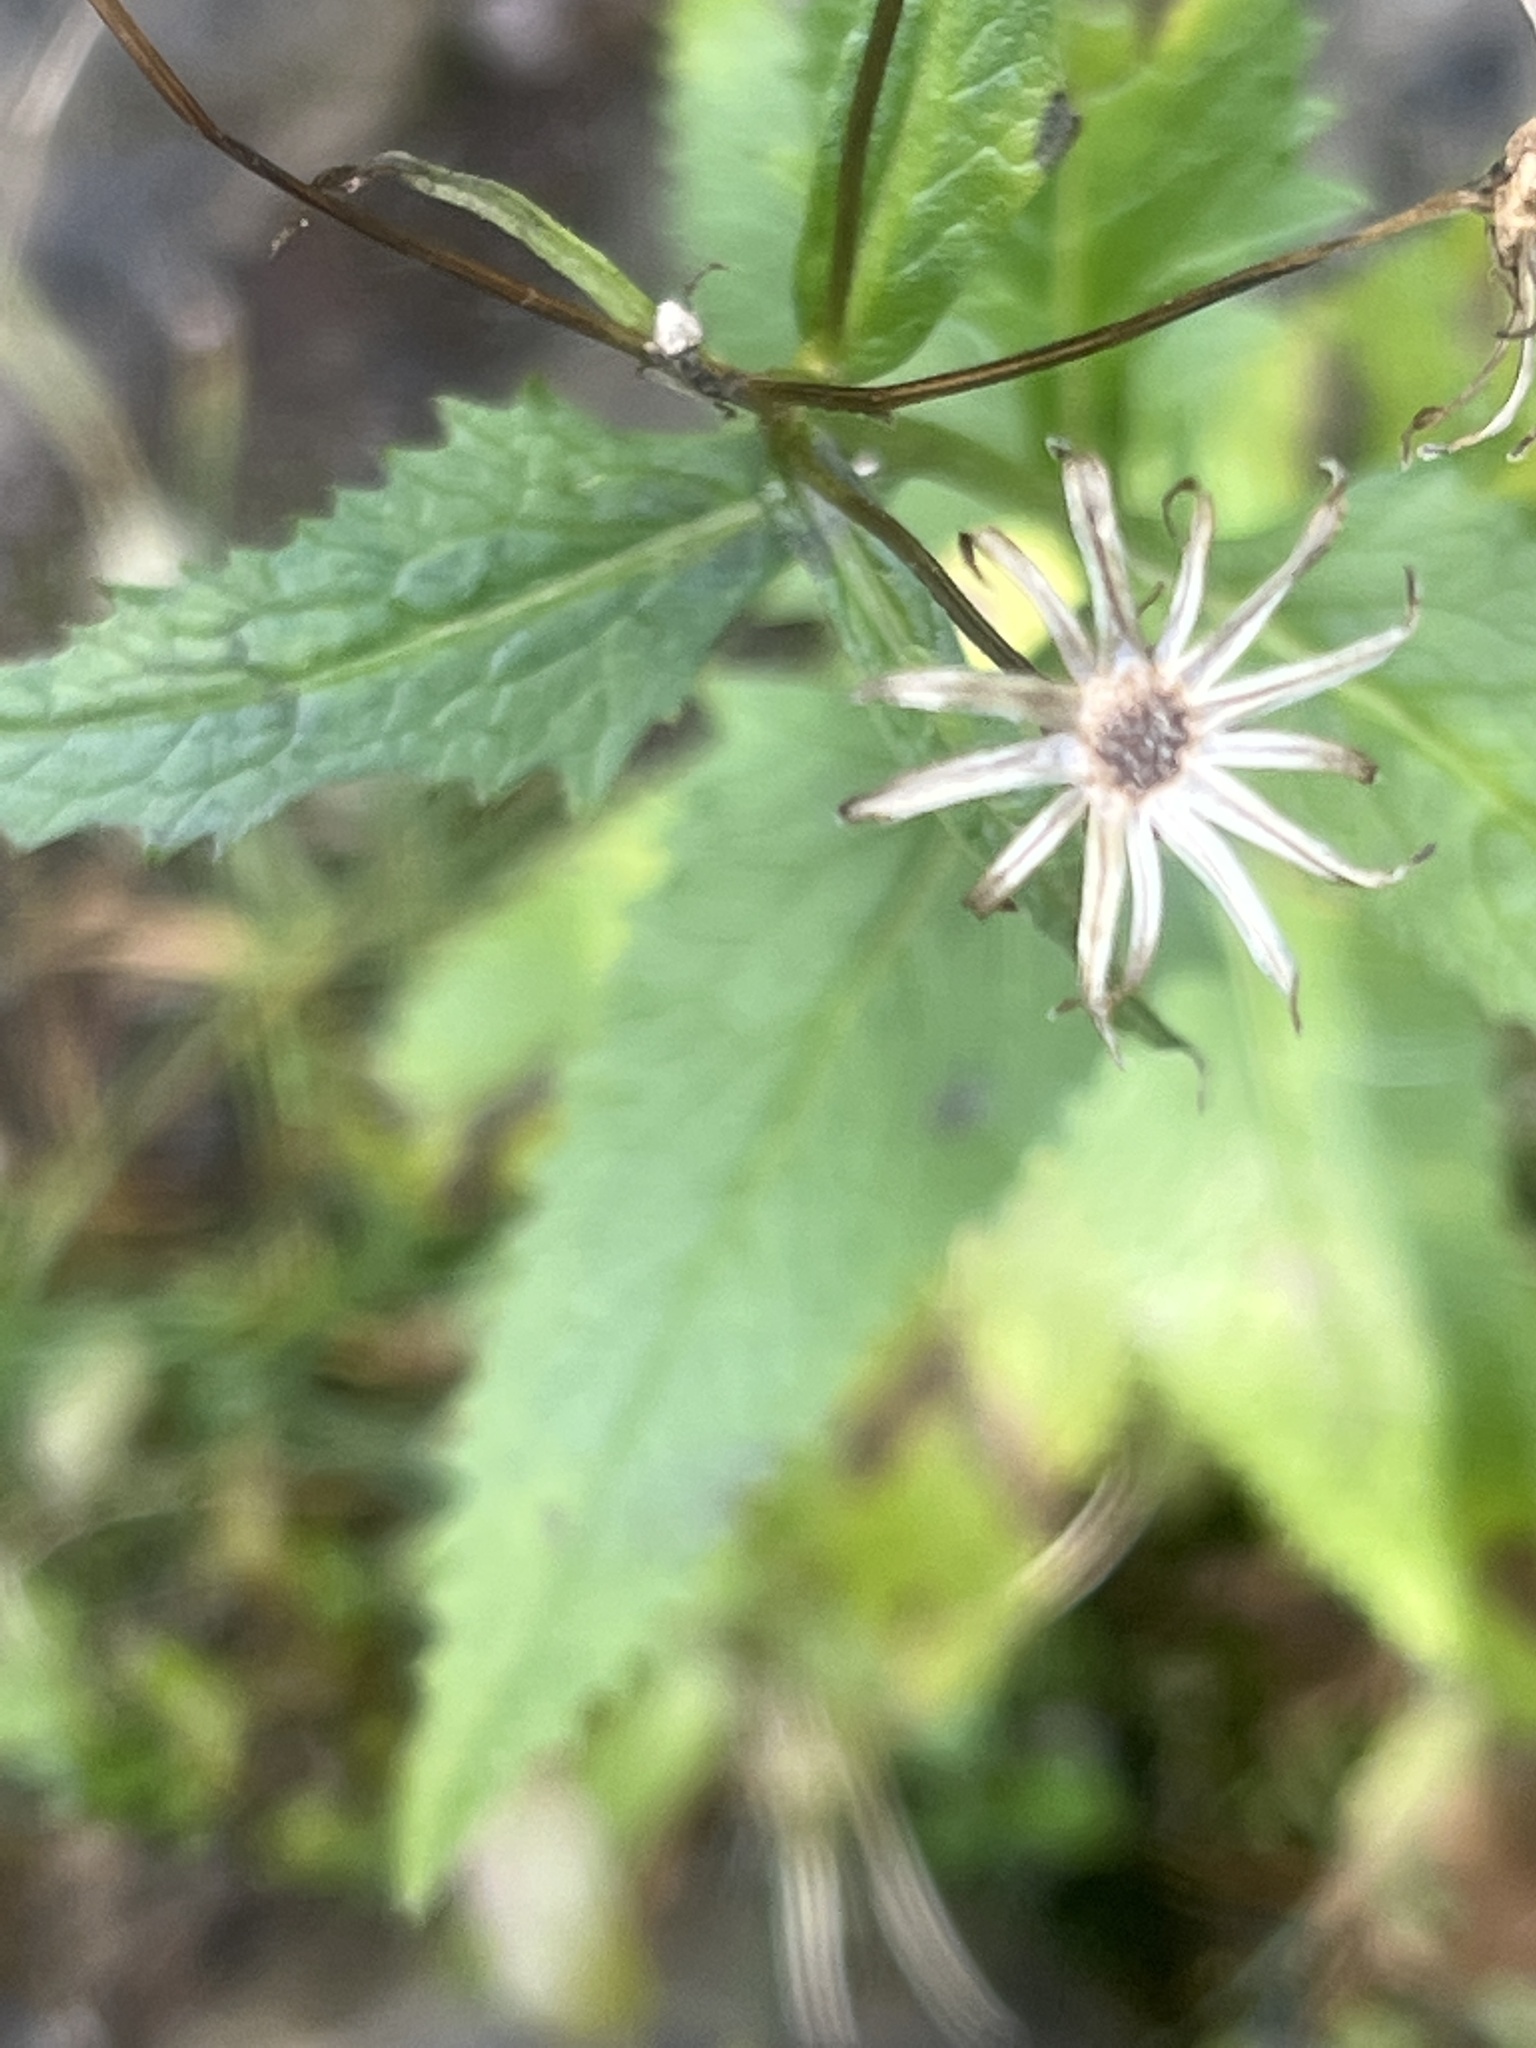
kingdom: Plantae
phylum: Tracheophyta
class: Magnoliopsida
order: Asterales
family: Asteraceae
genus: Senecio
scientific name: Senecio triangularis
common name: Arrowleaf butterweed
